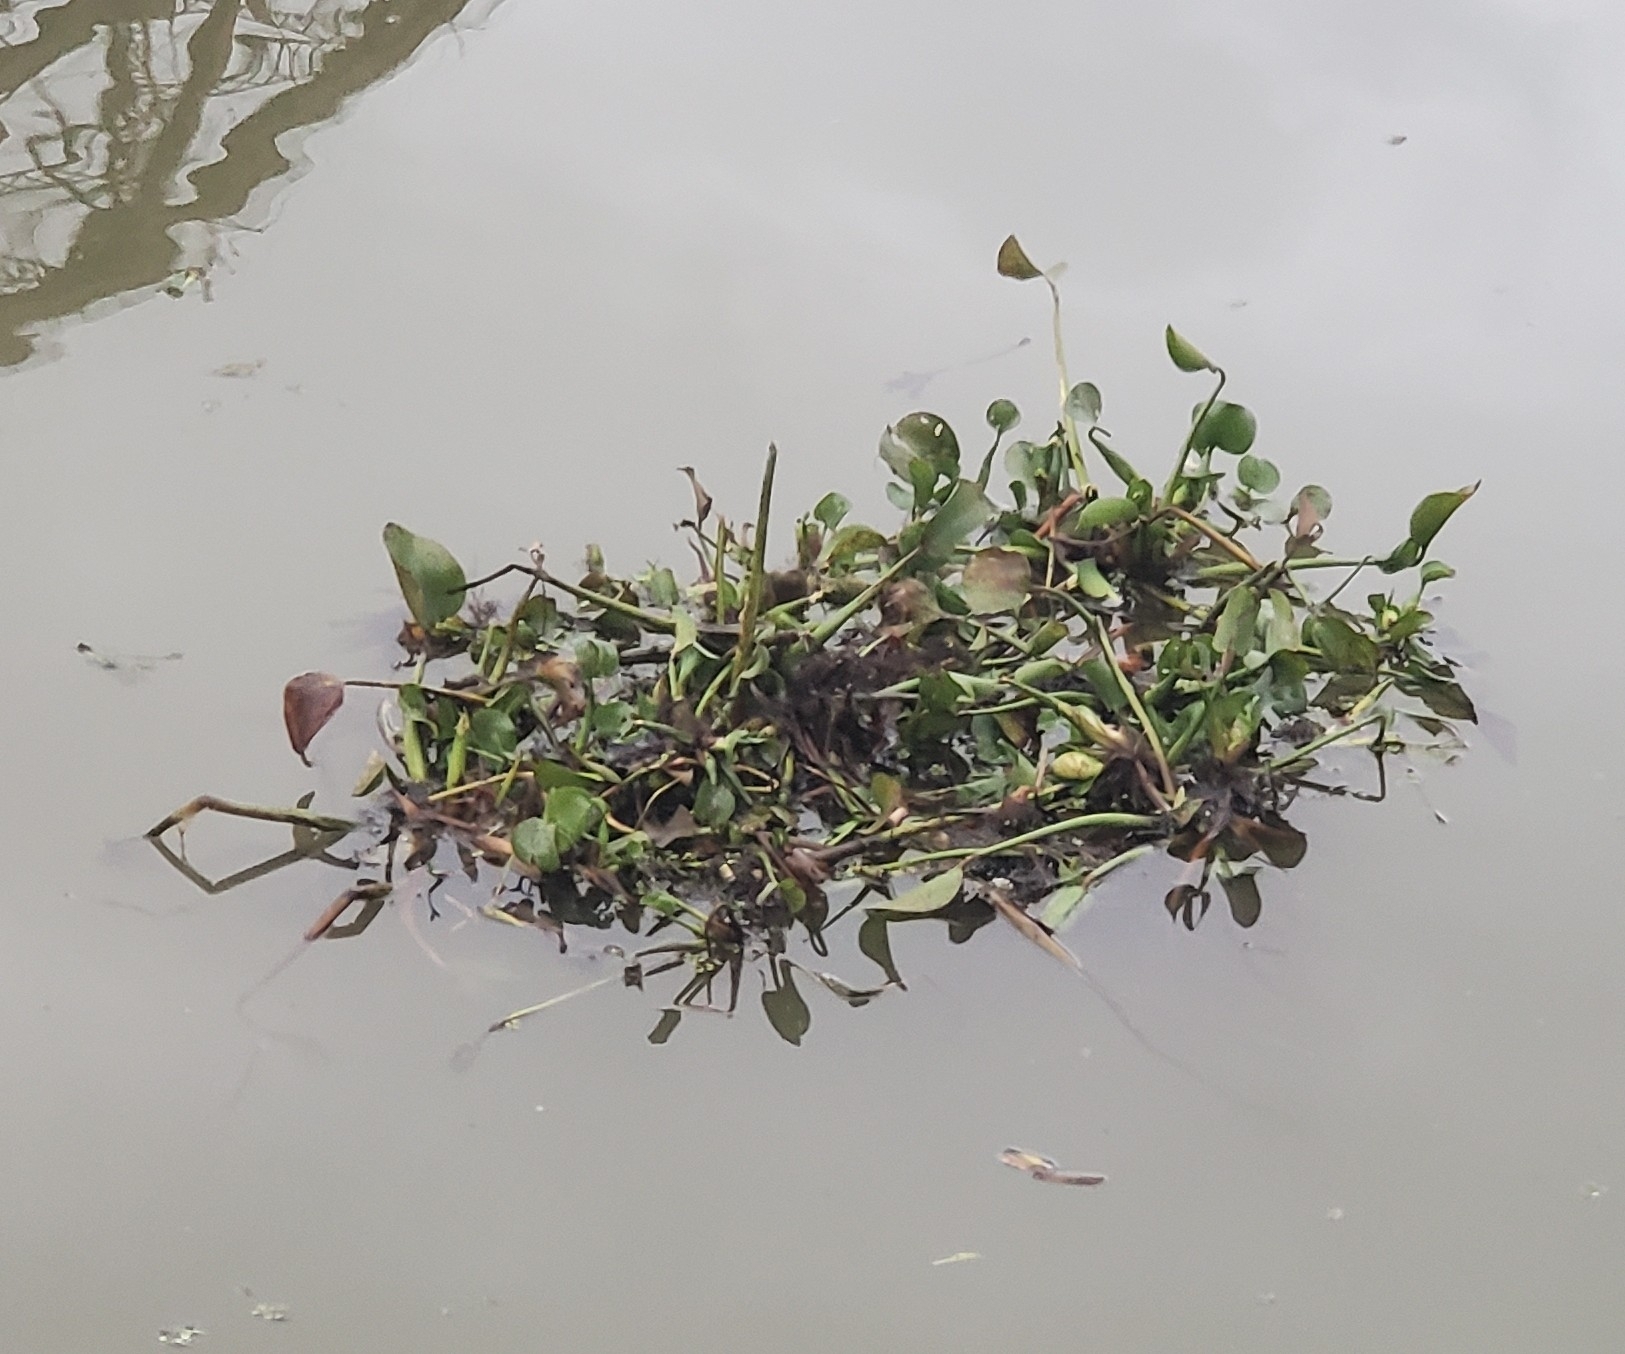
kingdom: Plantae
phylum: Tracheophyta
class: Liliopsida
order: Commelinales
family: Pontederiaceae
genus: Pontederia
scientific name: Pontederia crassipes
